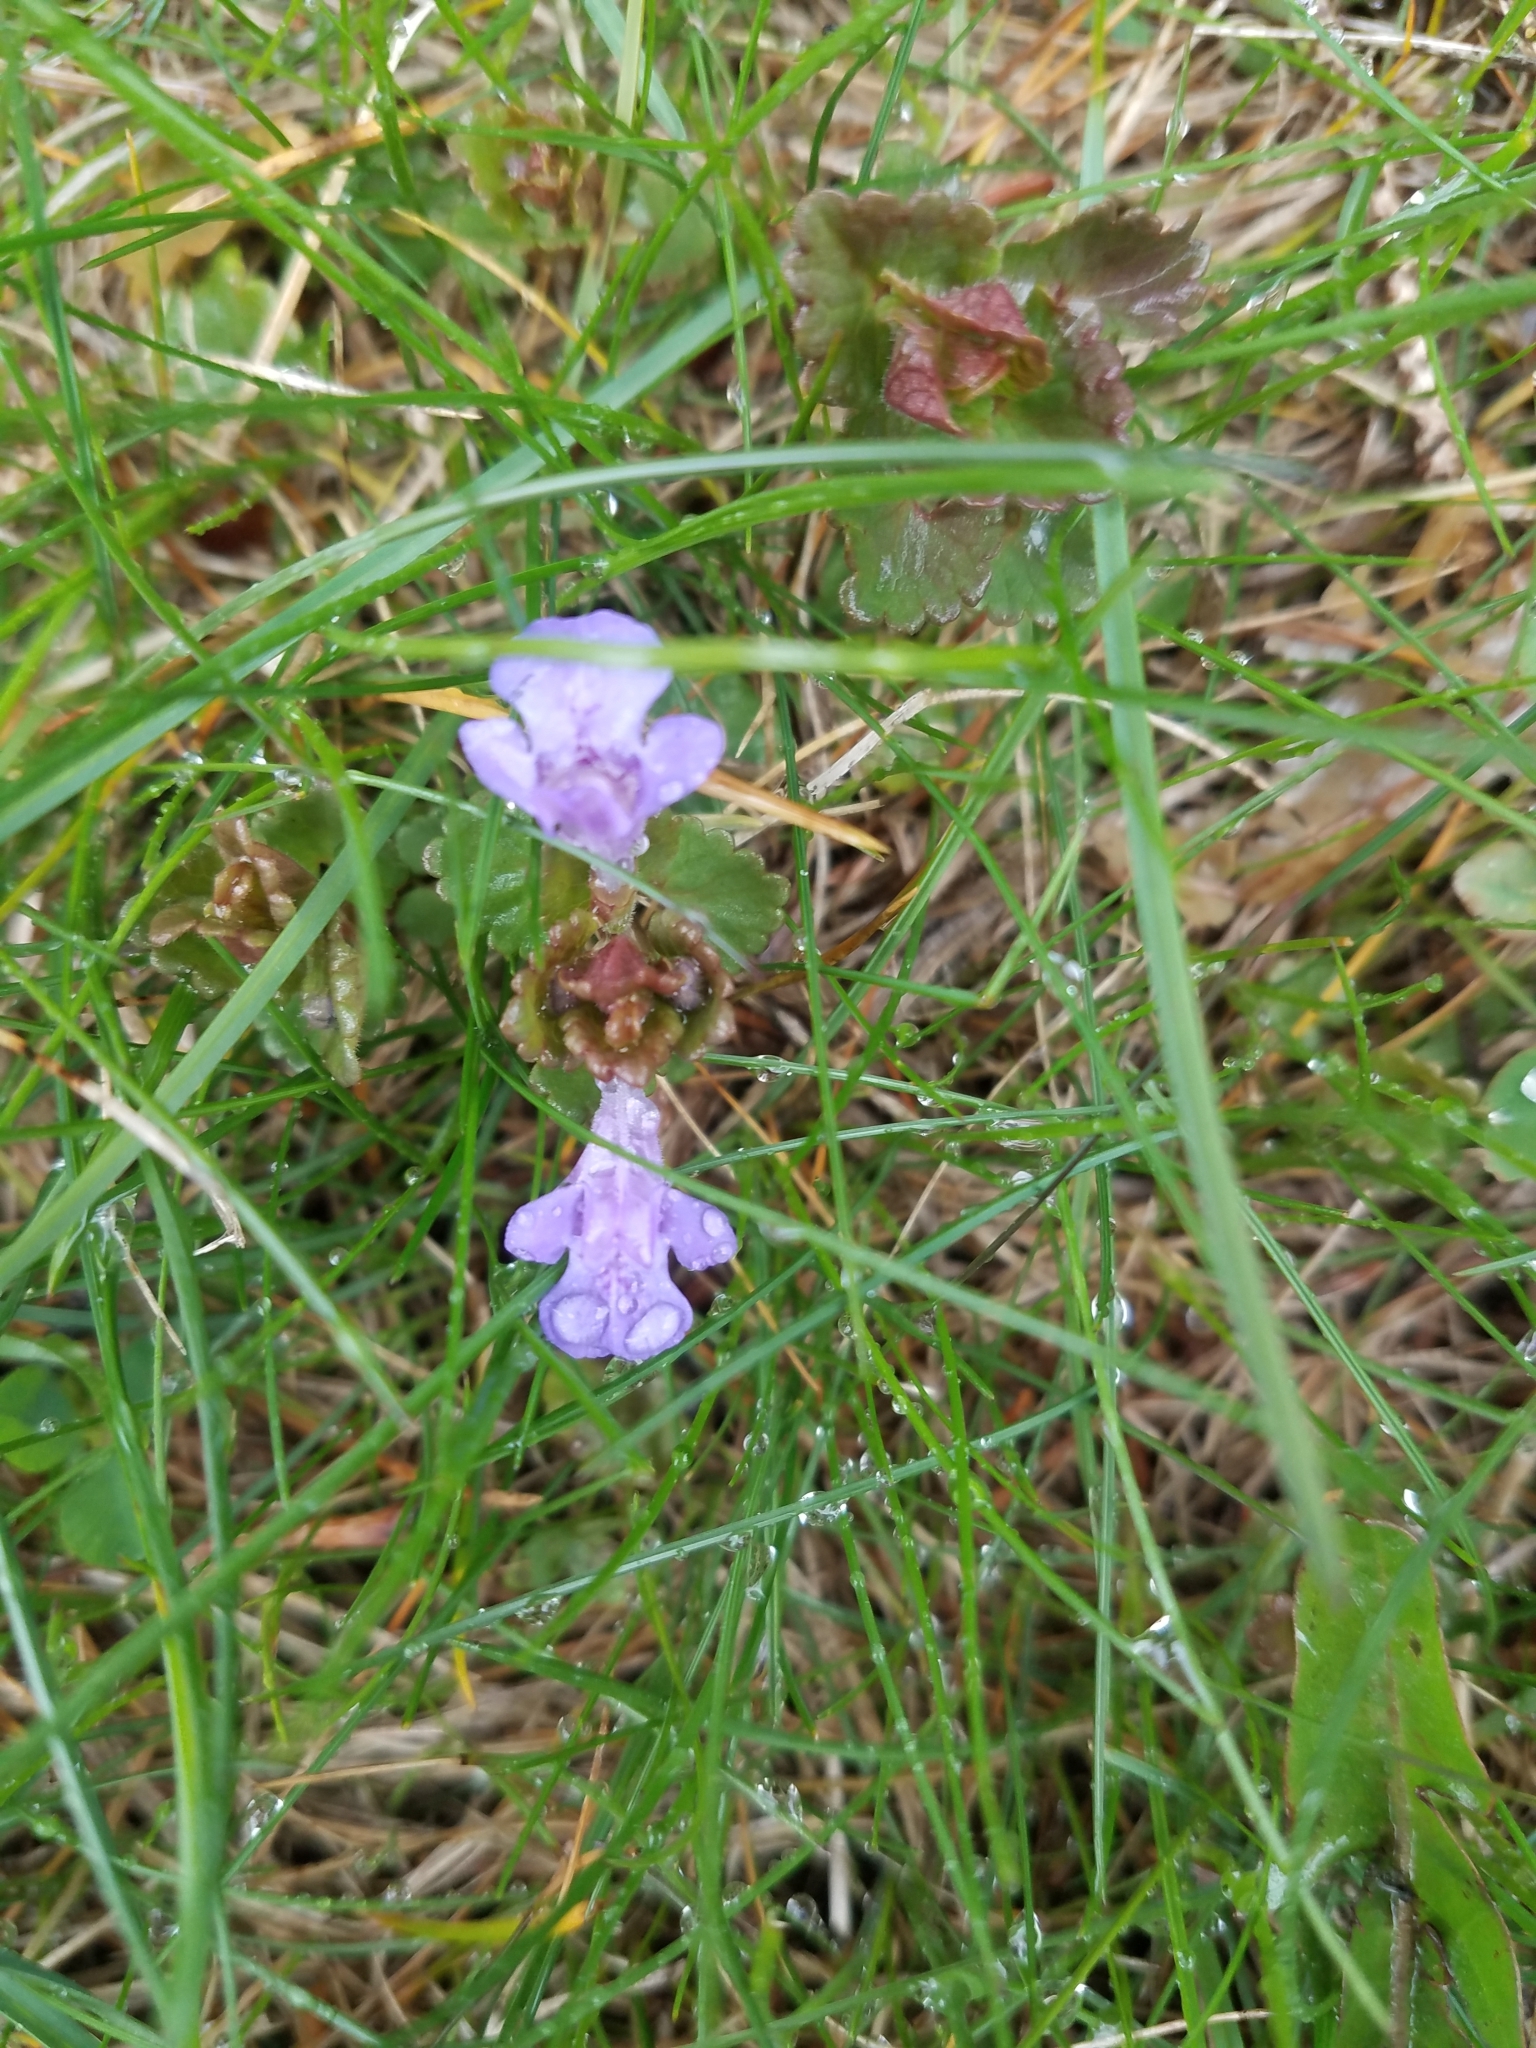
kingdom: Plantae
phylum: Tracheophyta
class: Magnoliopsida
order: Lamiales
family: Lamiaceae
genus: Glechoma
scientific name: Glechoma hederacea
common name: Ground ivy
